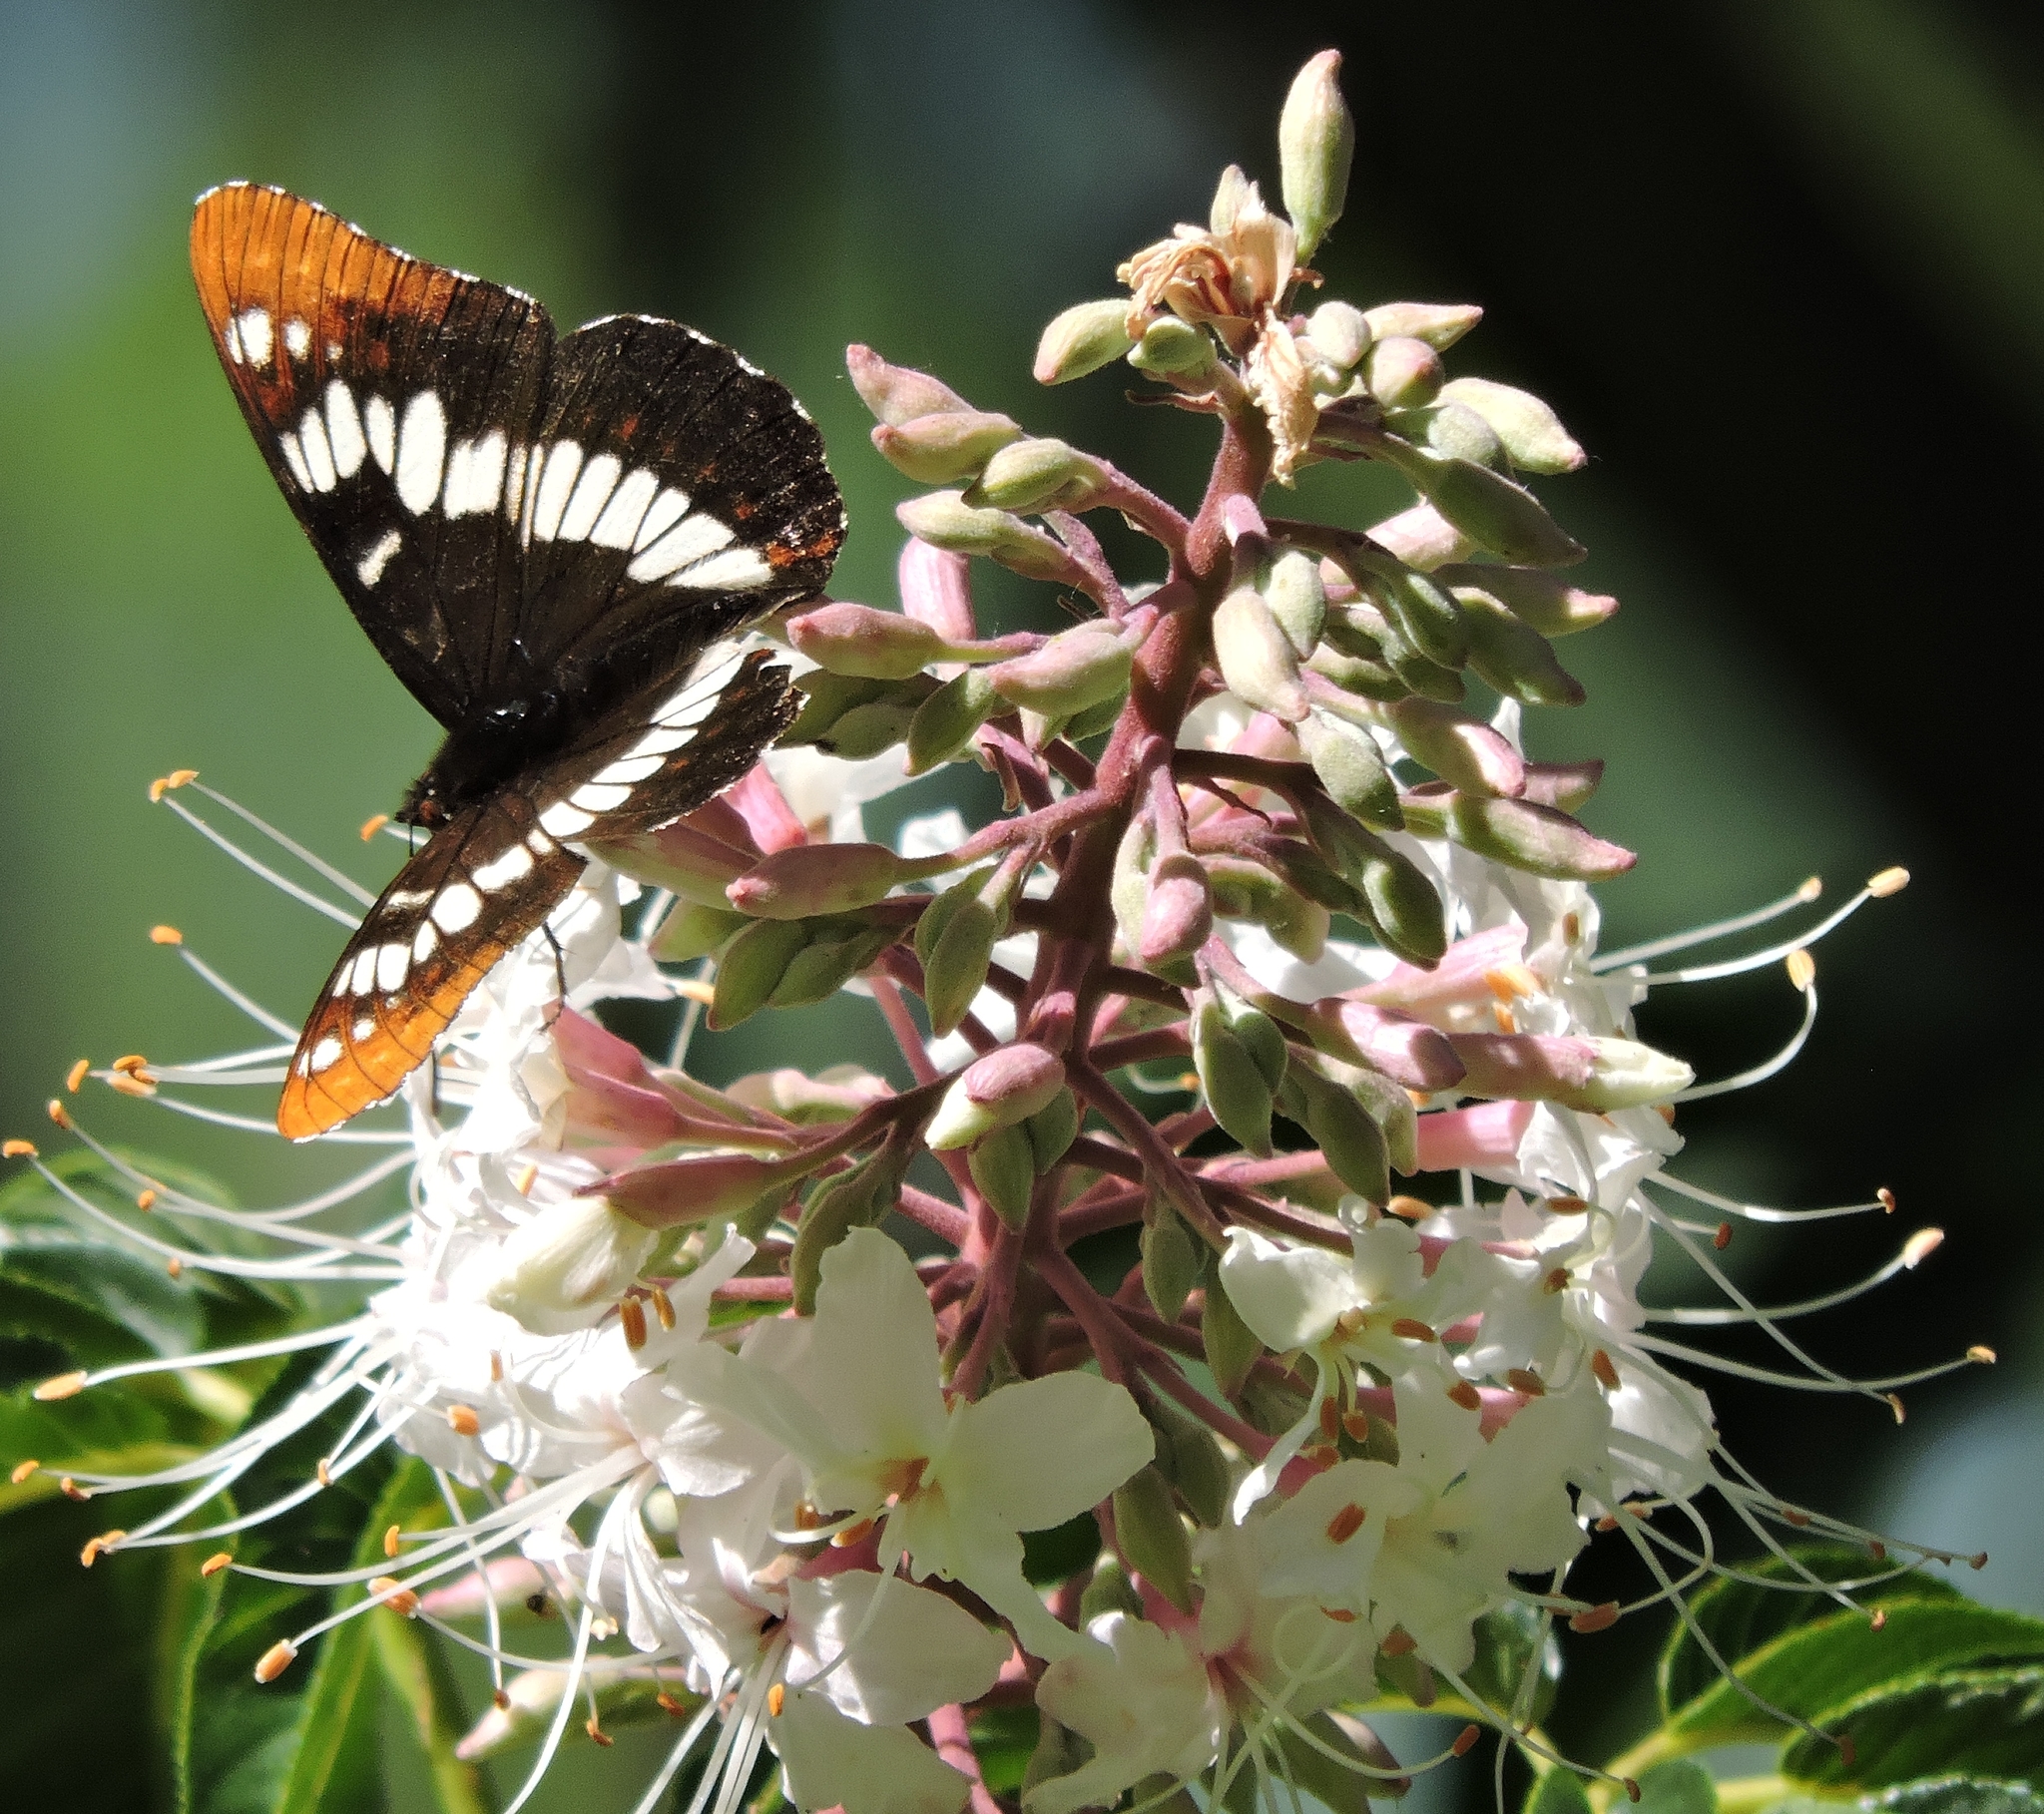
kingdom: Animalia
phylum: Arthropoda
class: Insecta
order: Lepidoptera
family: Nymphalidae
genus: Limenitis
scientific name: Limenitis lorquini
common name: Lorquin's admiral
